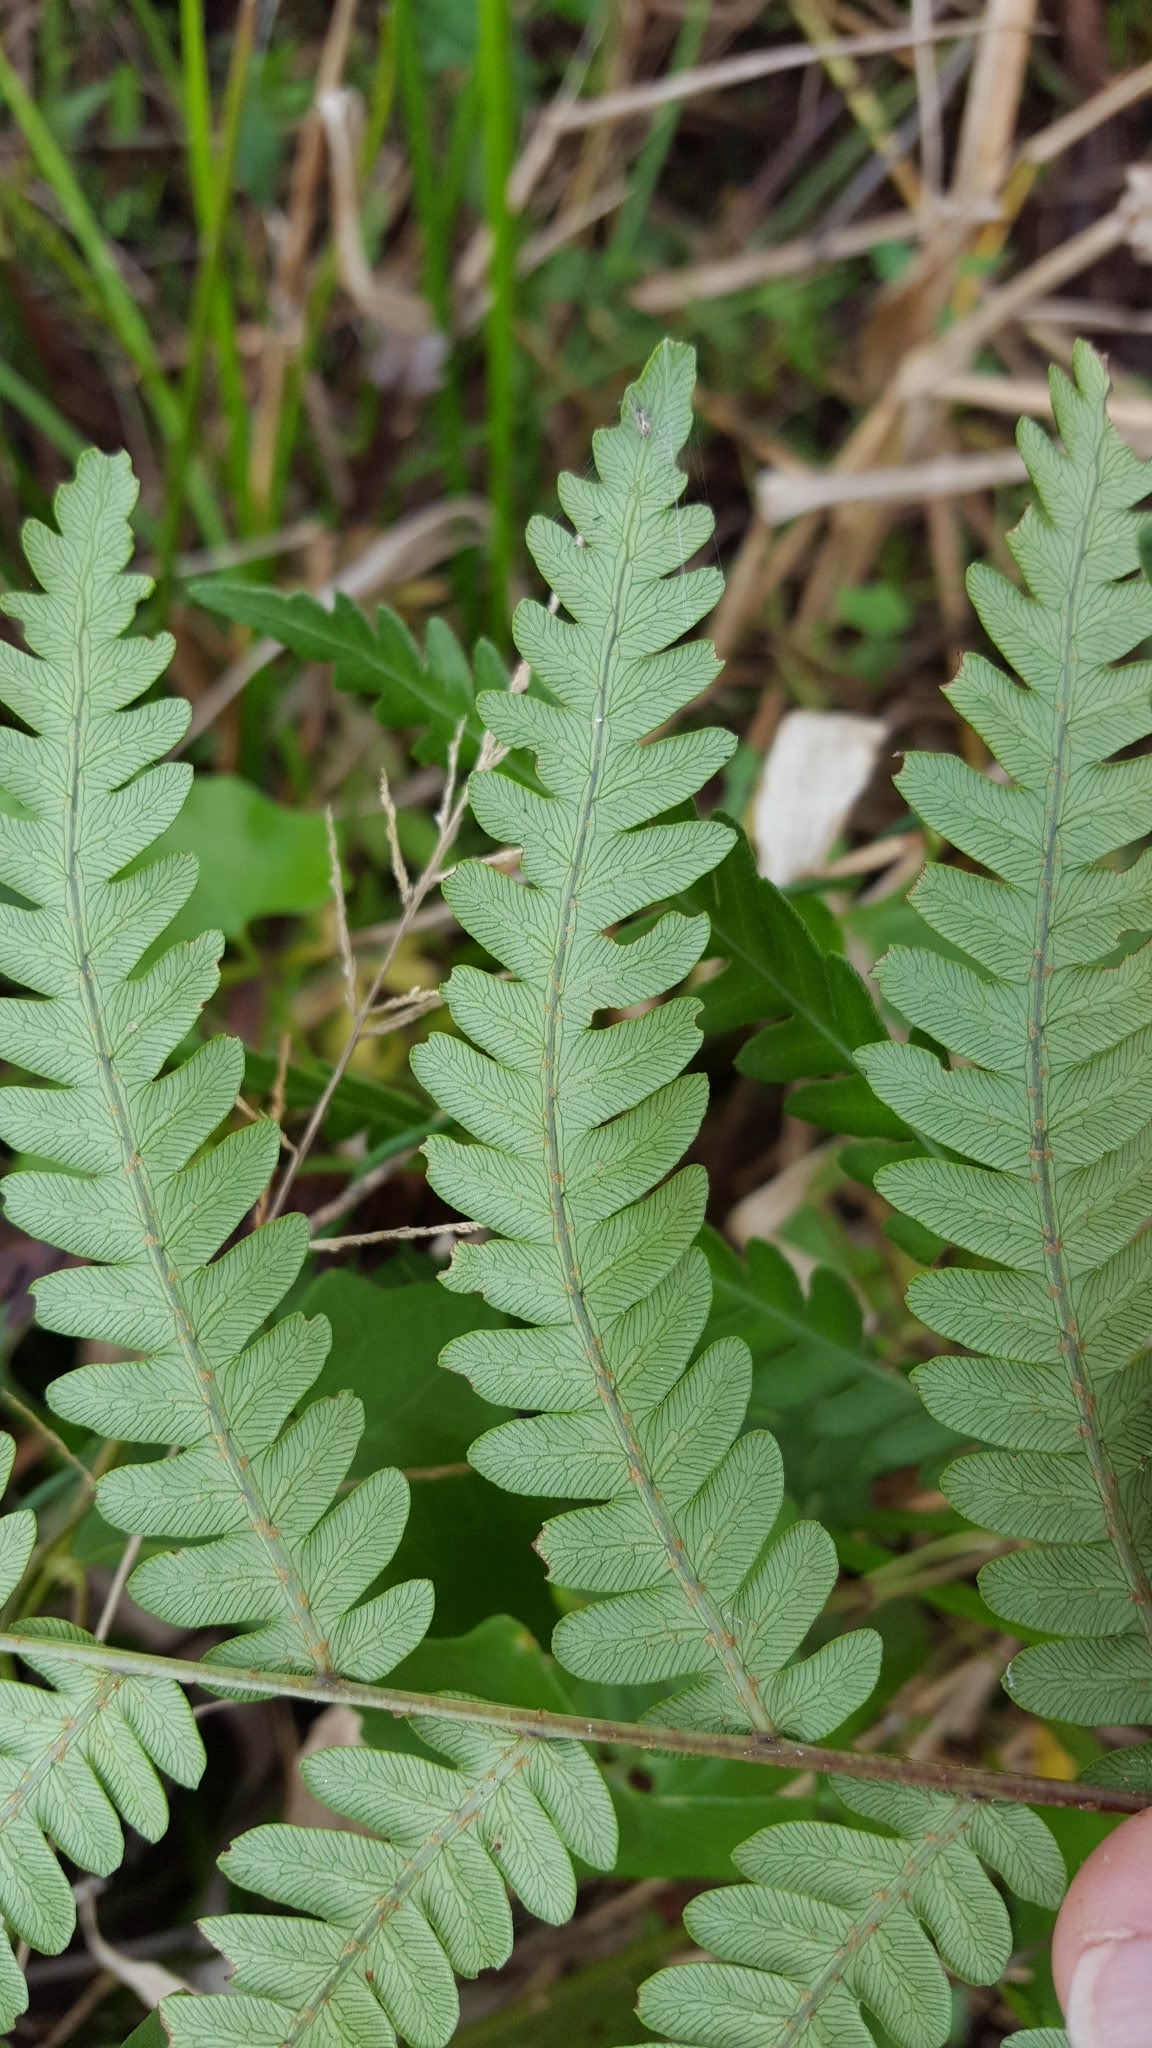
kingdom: Plantae
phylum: Tracheophyta
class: Polypodiopsida
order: Polypodiales
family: Blechnaceae
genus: Anchistea
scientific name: Anchistea virginica
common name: Virginia chain fern
